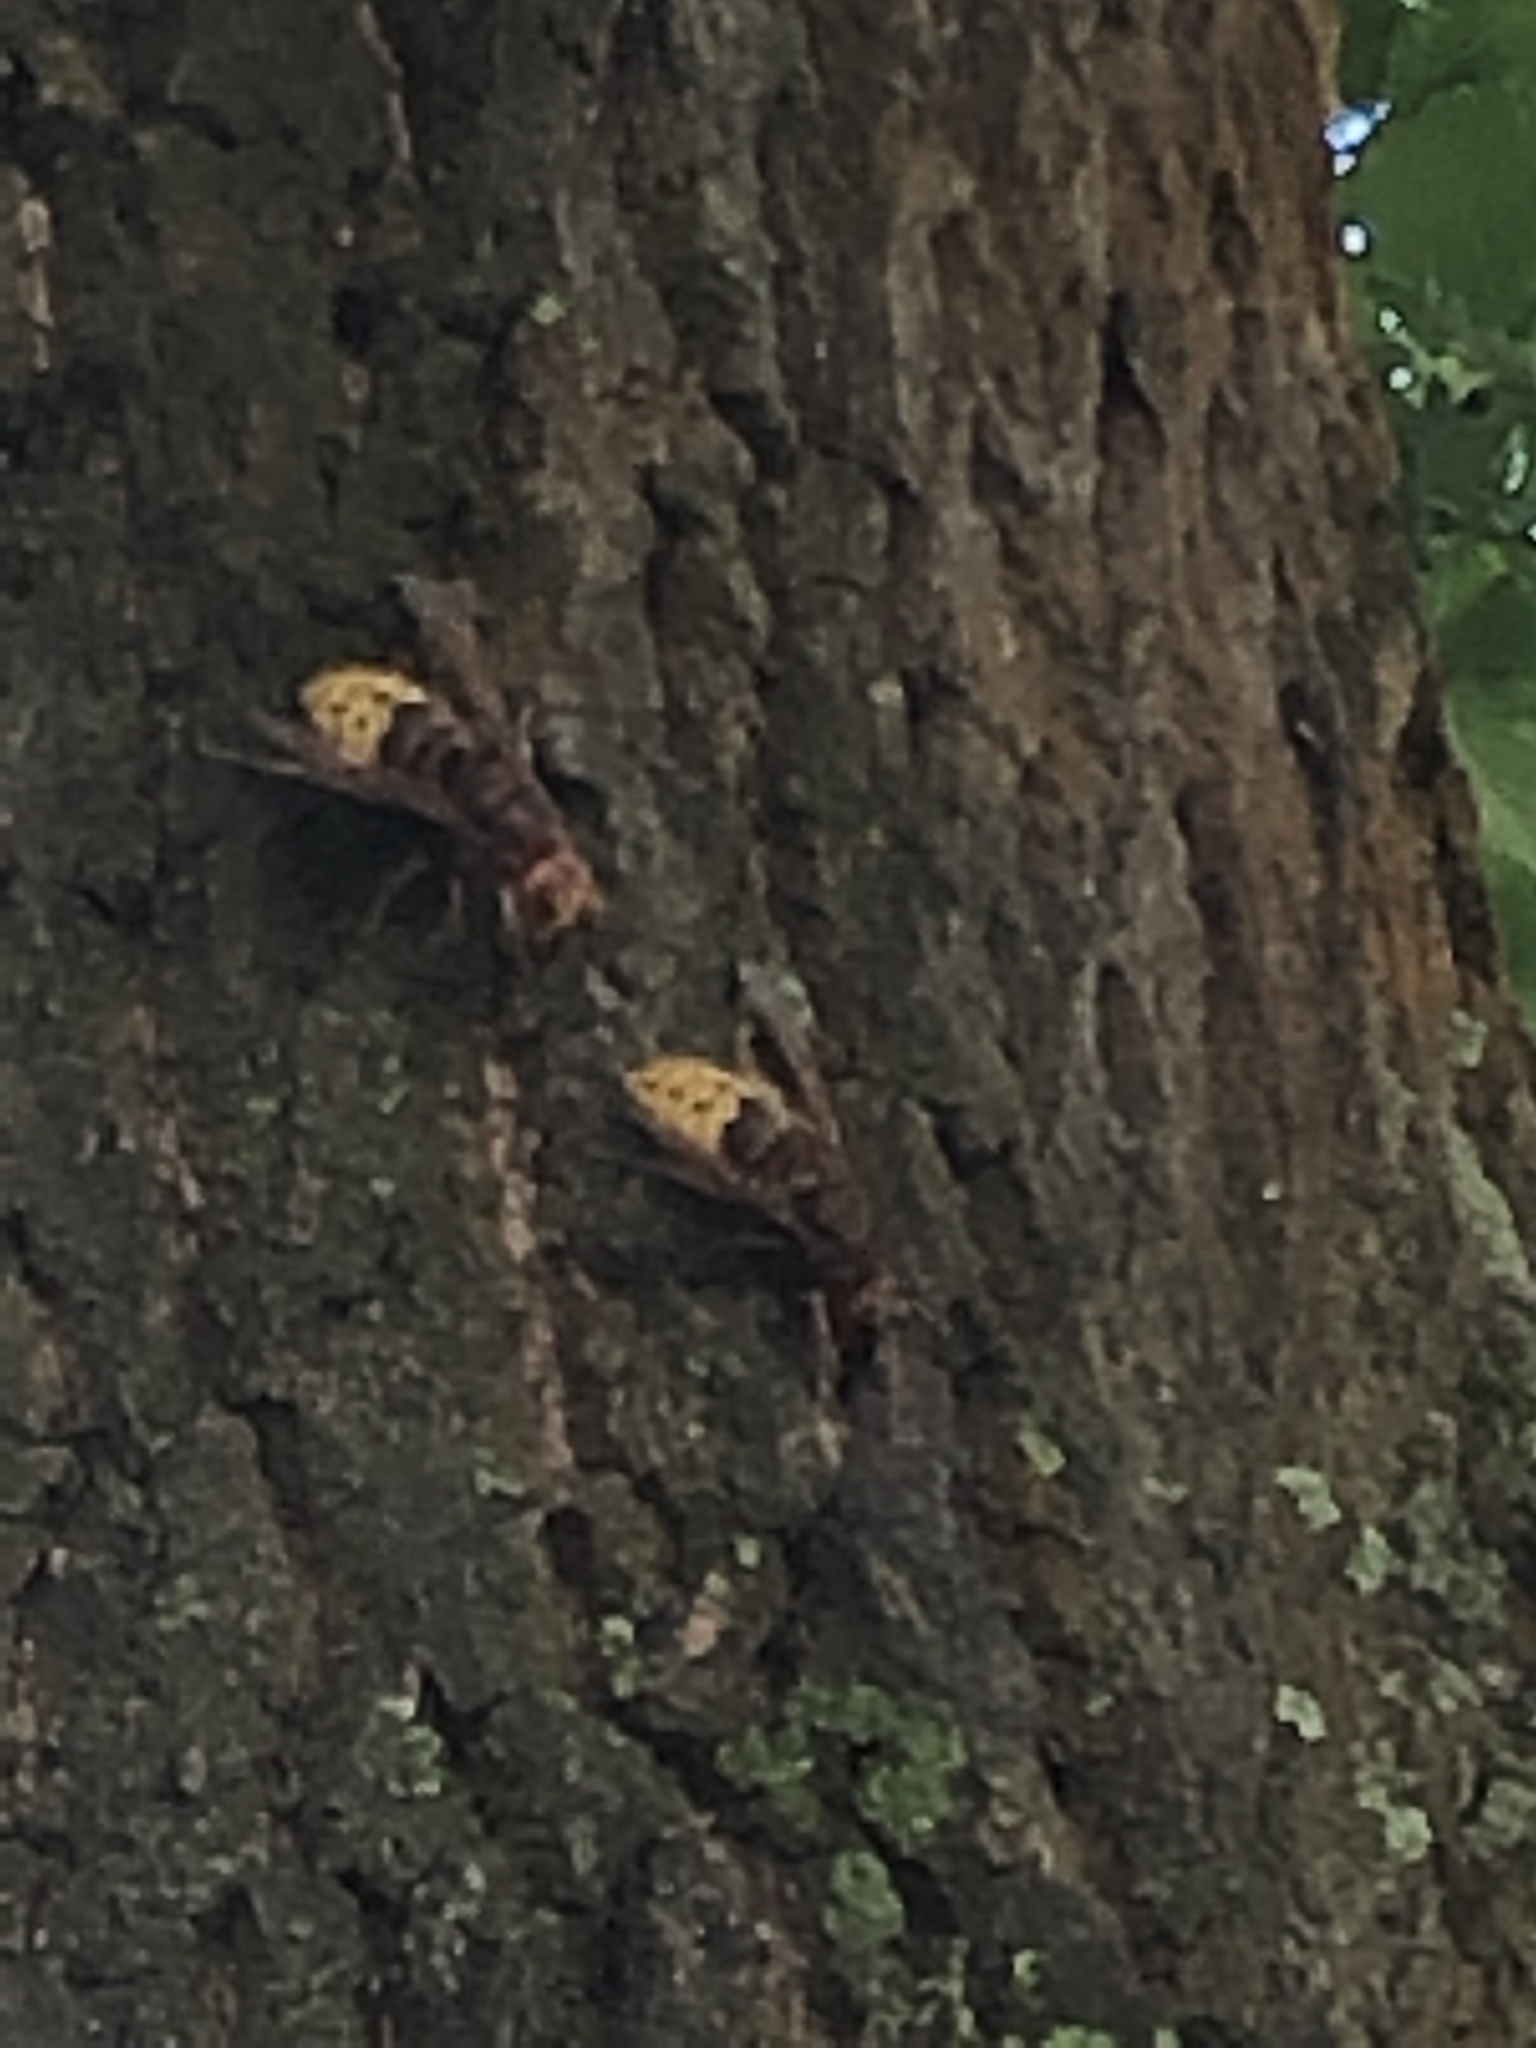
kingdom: Animalia
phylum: Arthropoda
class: Insecta
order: Hymenoptera
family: Vespidae
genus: Vespa
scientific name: Vespa crabro
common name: Hornet
